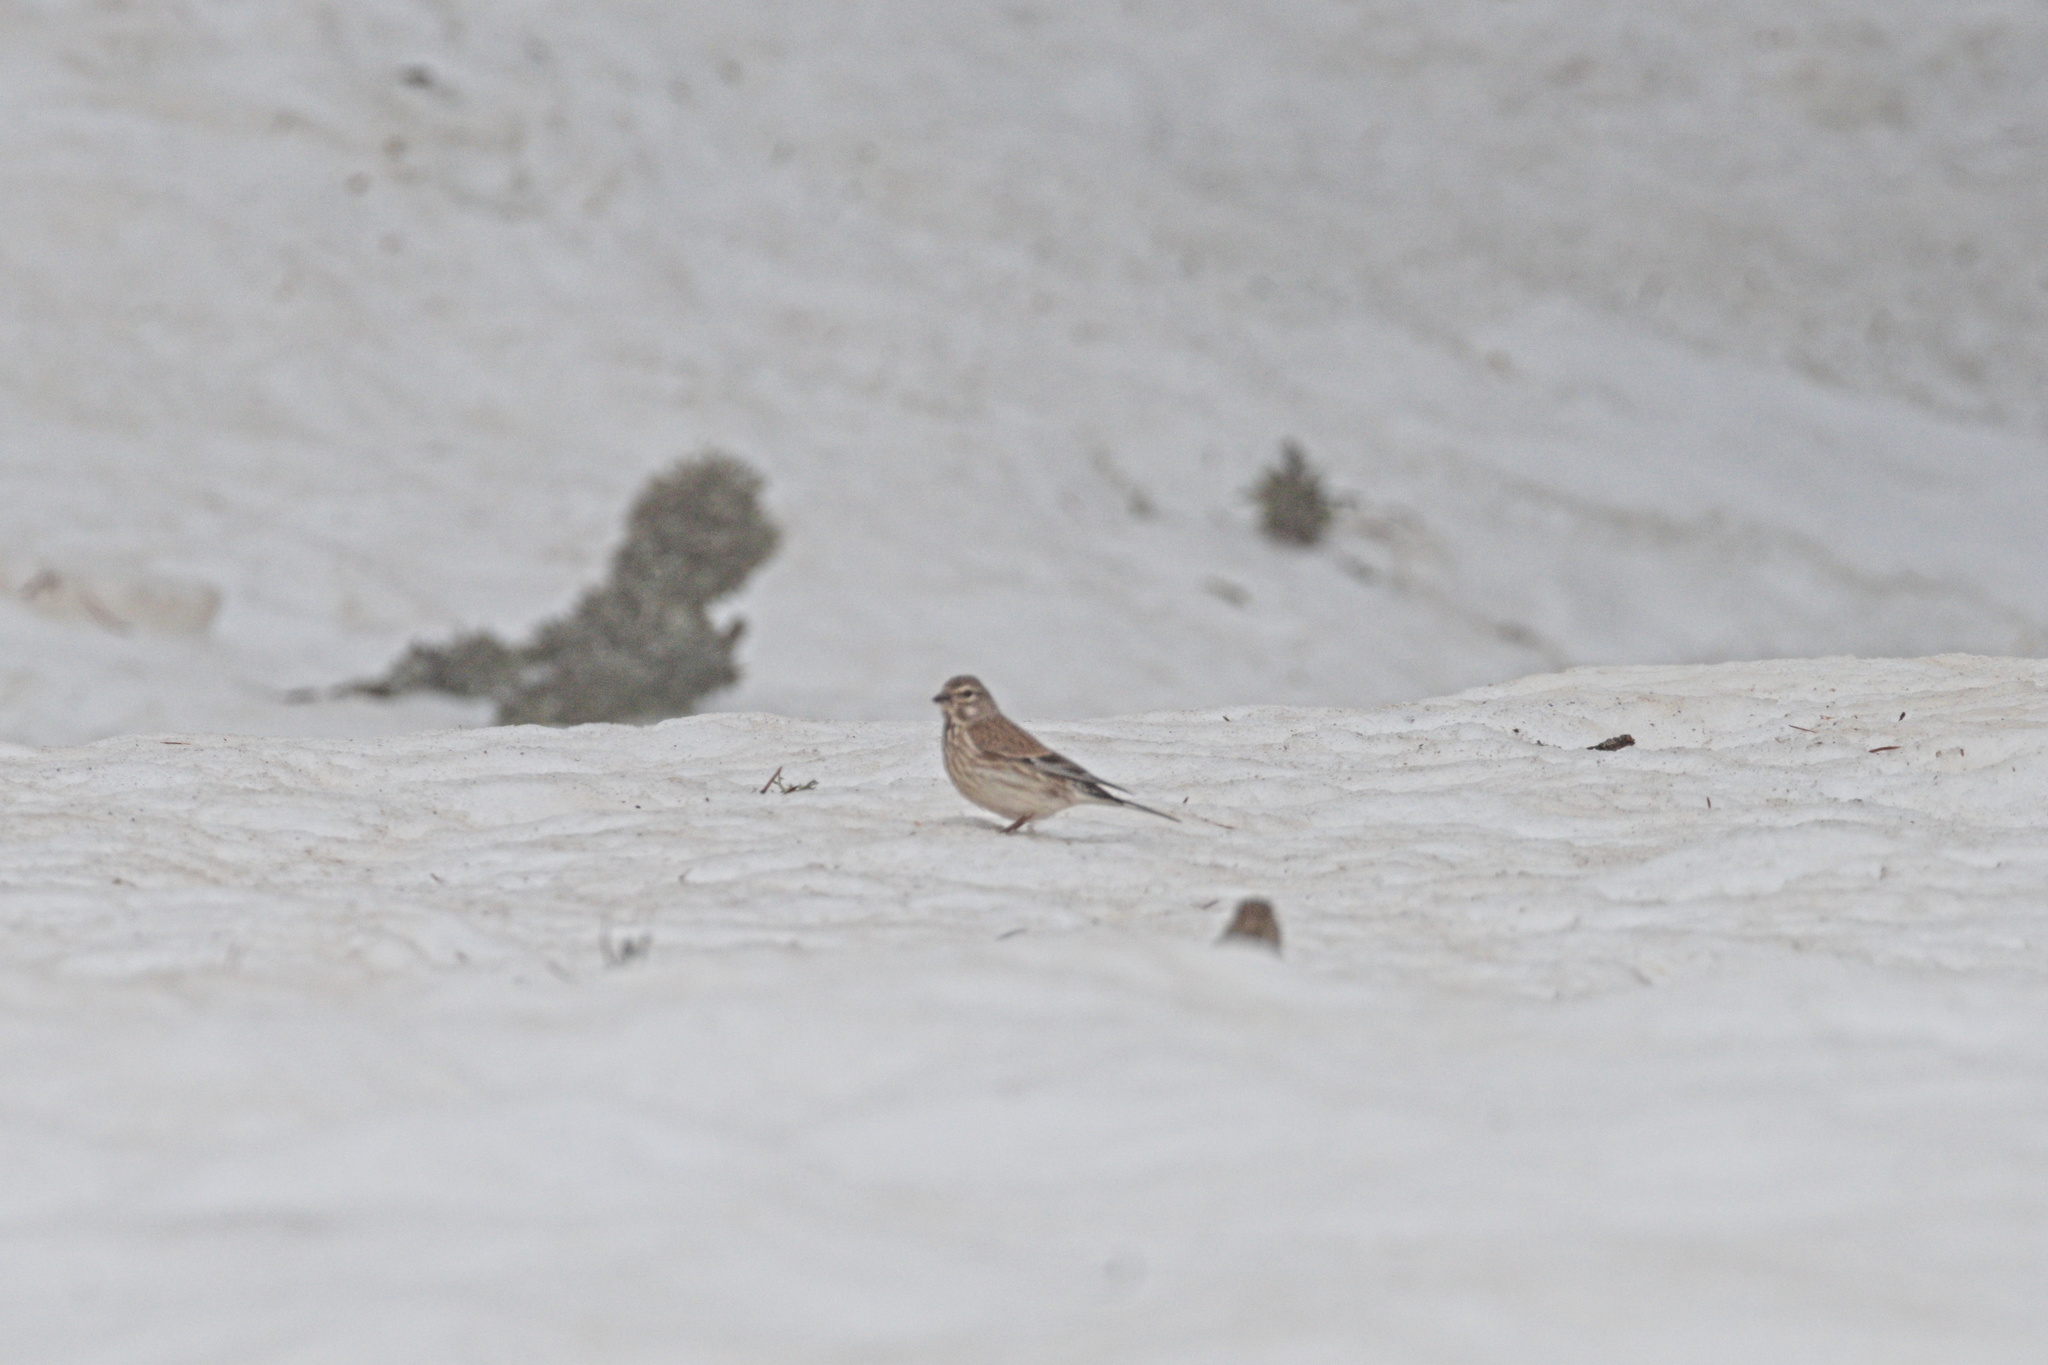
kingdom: Animalia
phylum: Chordata
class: Aves
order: Passeriformes
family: Fringillidae
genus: Linaria
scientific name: Linaria cannabina
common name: Common linnet
